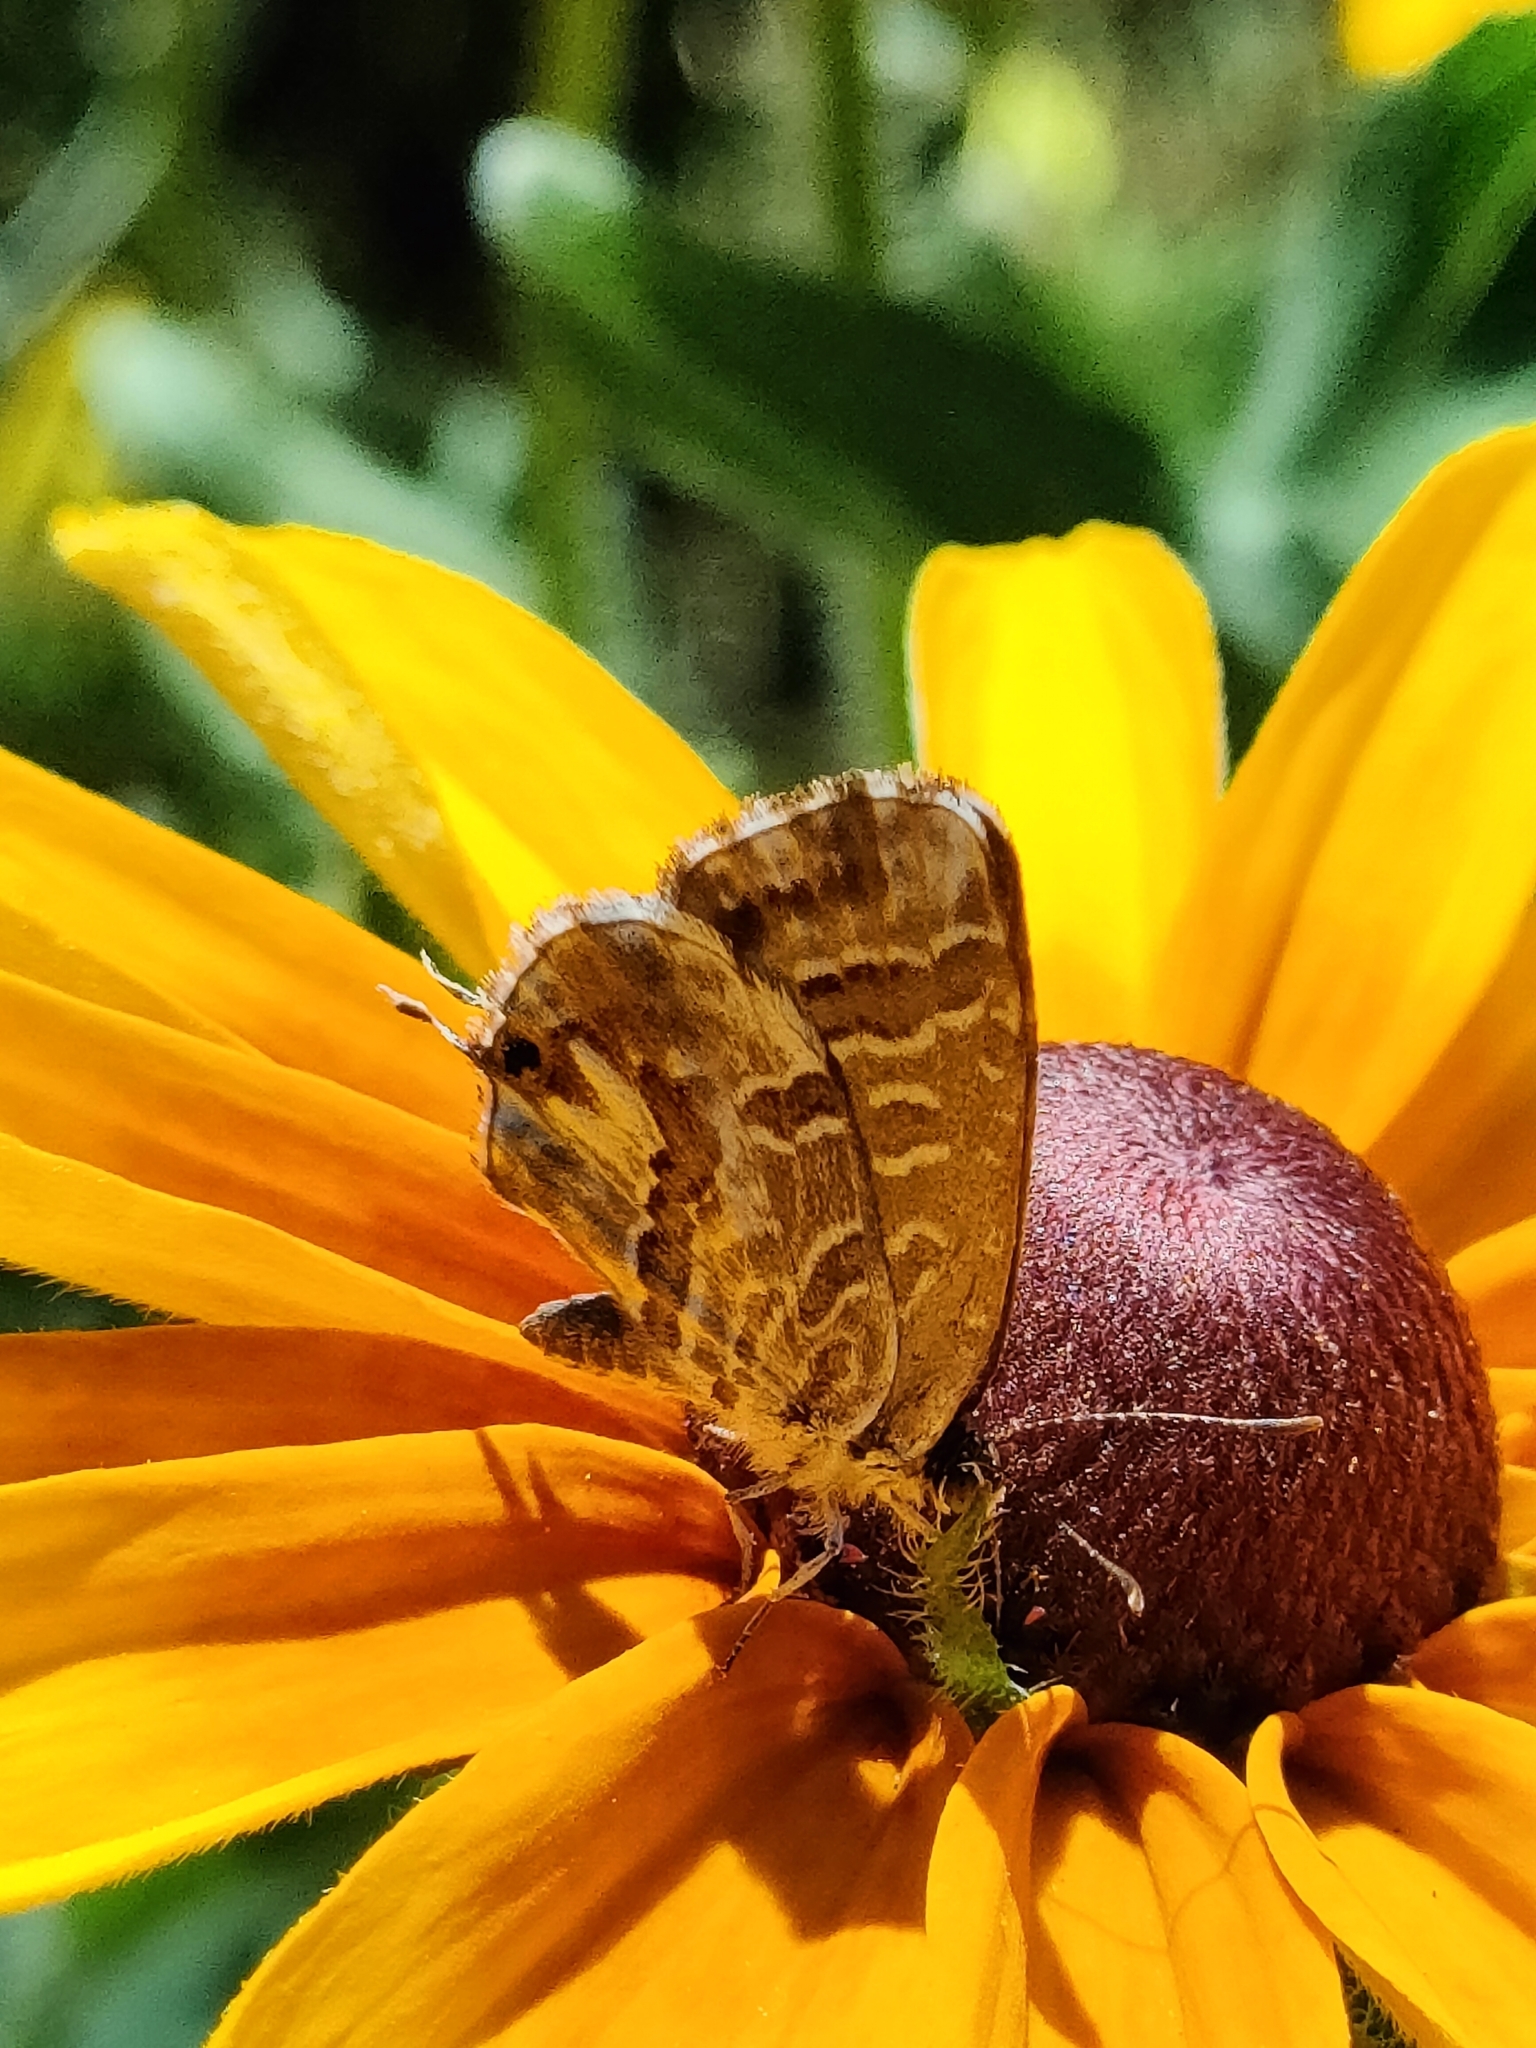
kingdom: Animalia
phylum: Arthropoda
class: Insecta
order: Lepidoptera
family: Lycaenidae
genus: Cacyreus
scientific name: Cacyreus marshalli
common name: Geranium bronze
